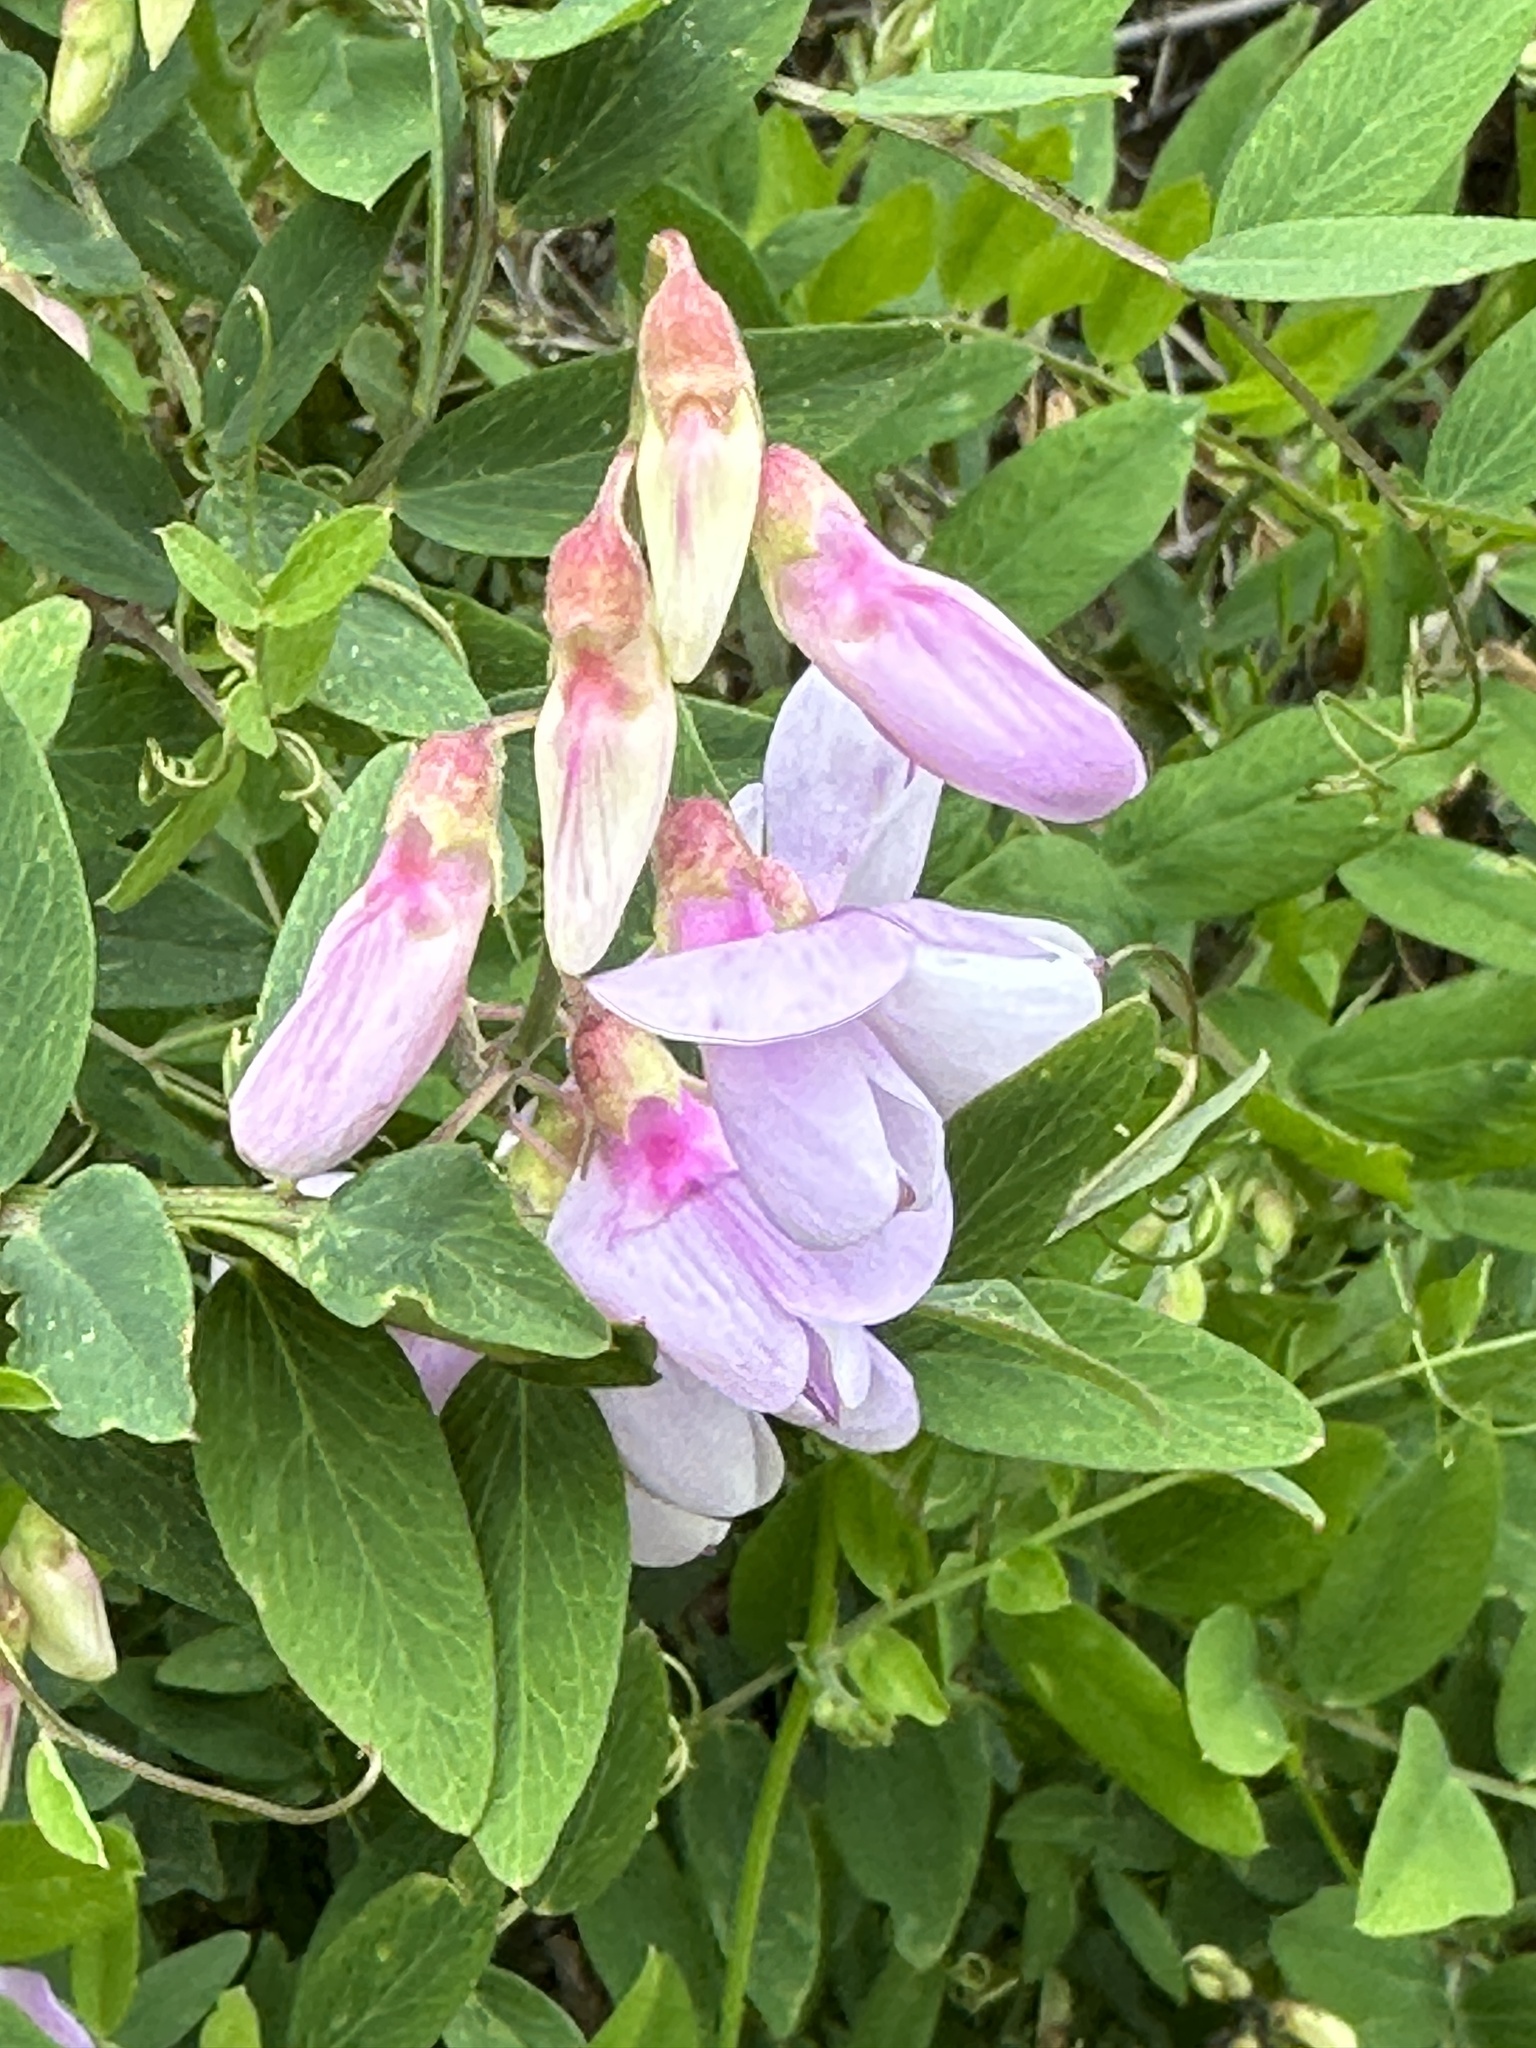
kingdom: Plantae
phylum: Tracheophyta
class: Magnoliopsida
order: Fabales
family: Fabaceae
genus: Lathyrus
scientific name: Lathyrus vestitus
